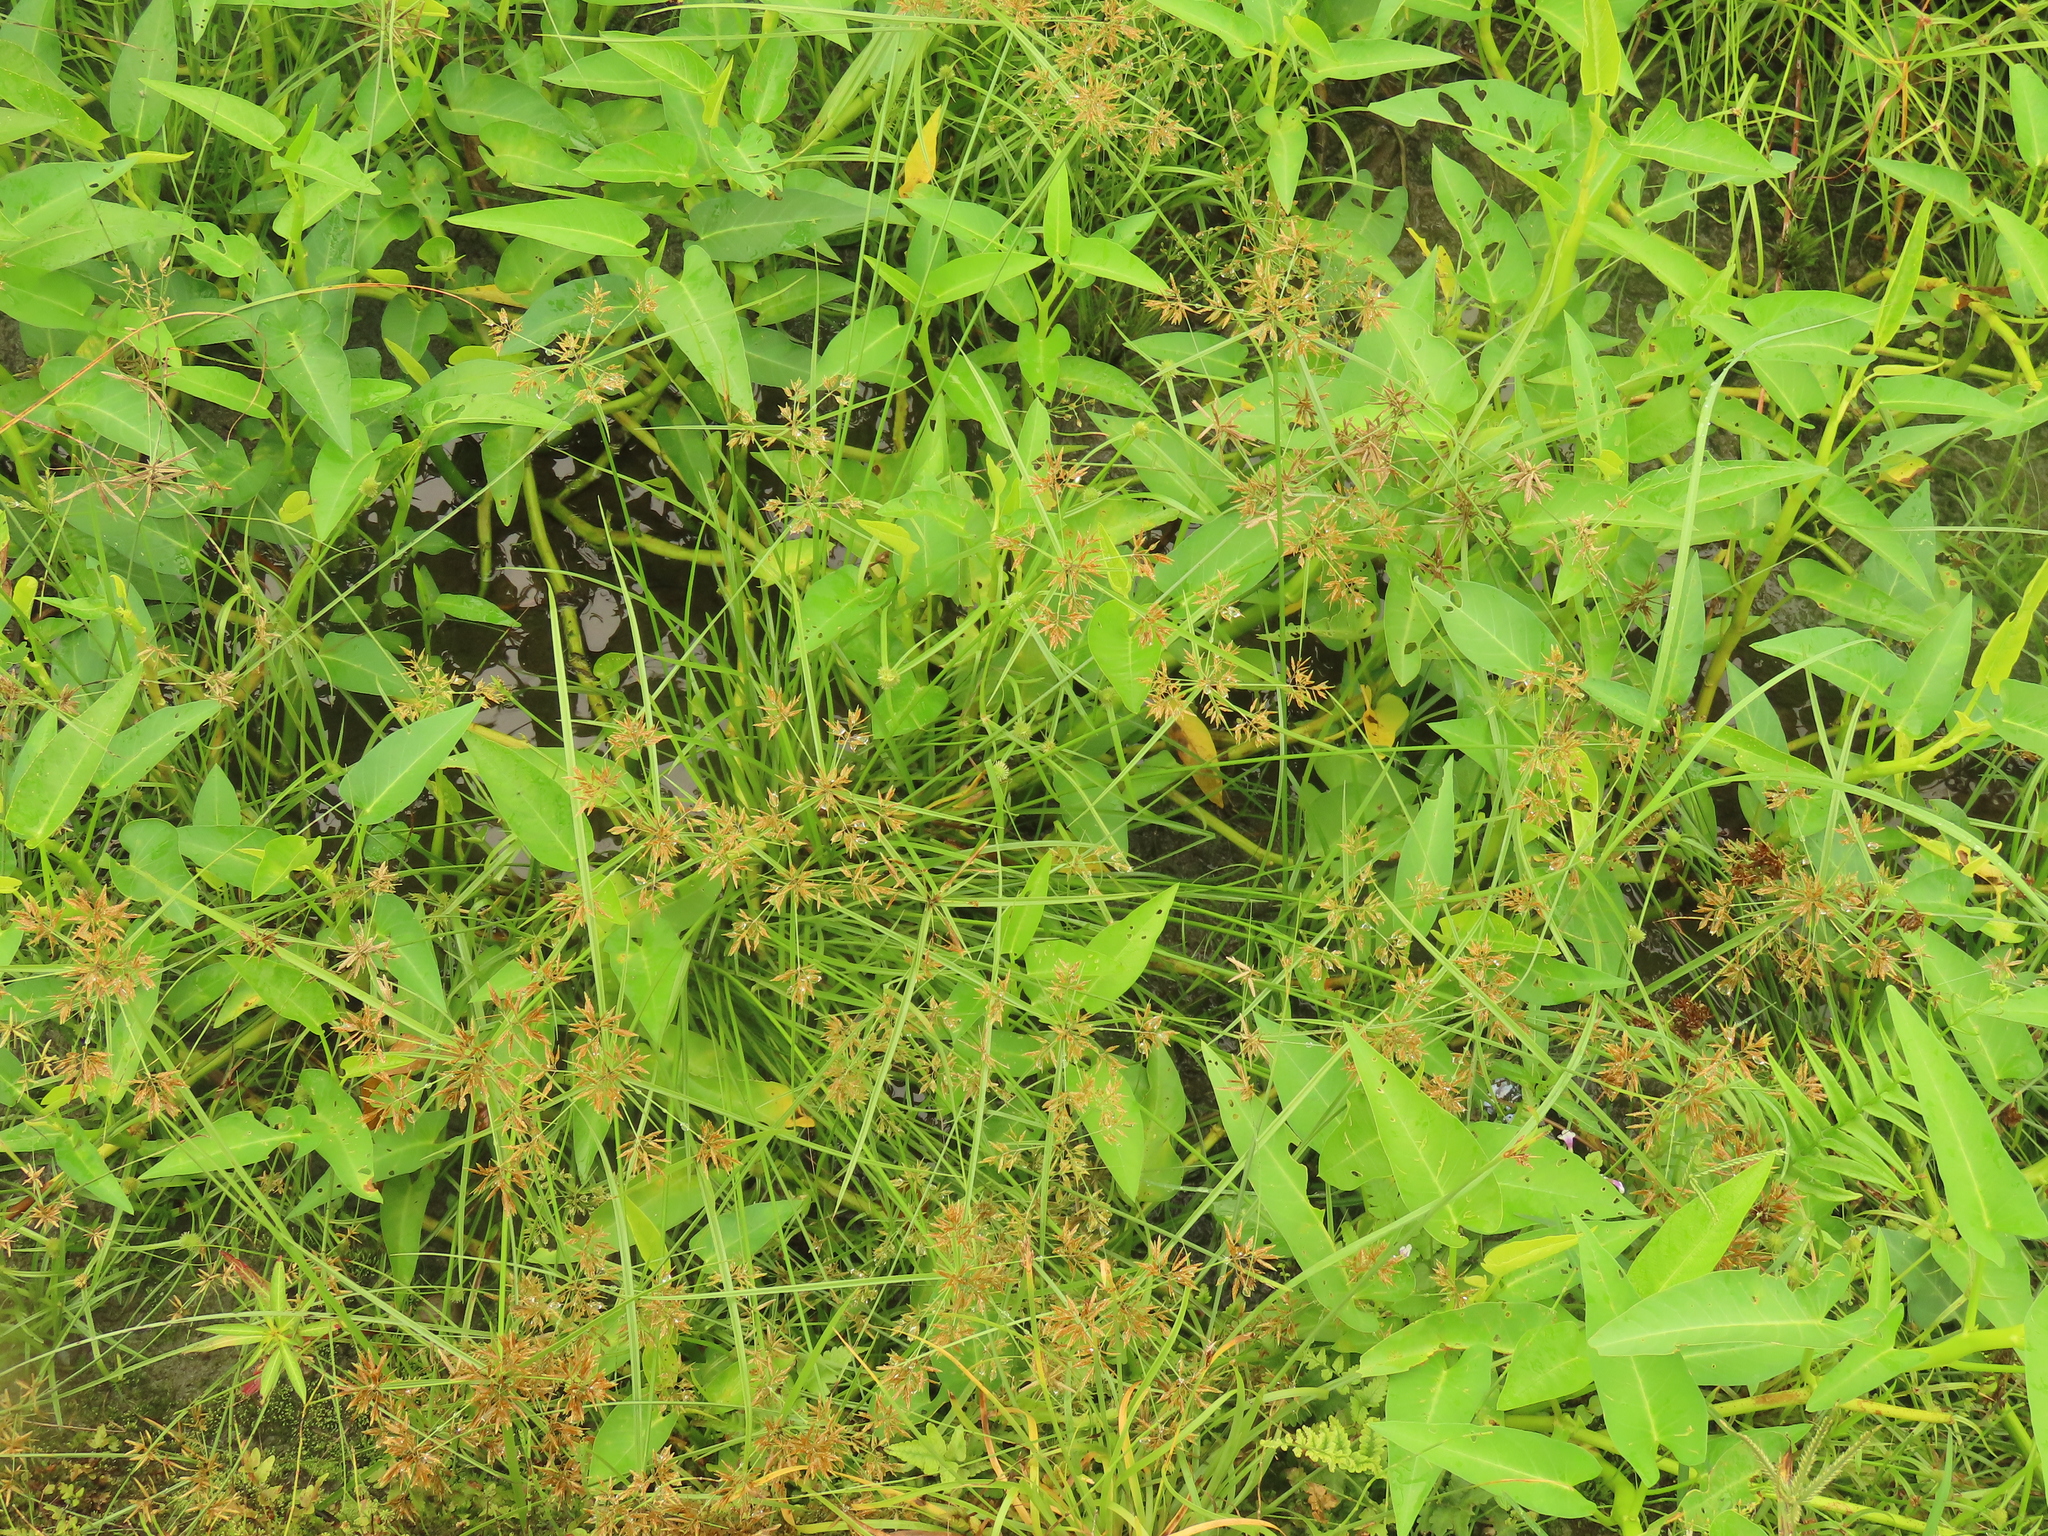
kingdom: Plantae
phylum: Tracheophyta
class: Liliopsida
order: Poales
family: Cyperaceae
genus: Cyperus
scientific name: Cyperus polystachyos
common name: Bunchy flat sedge
